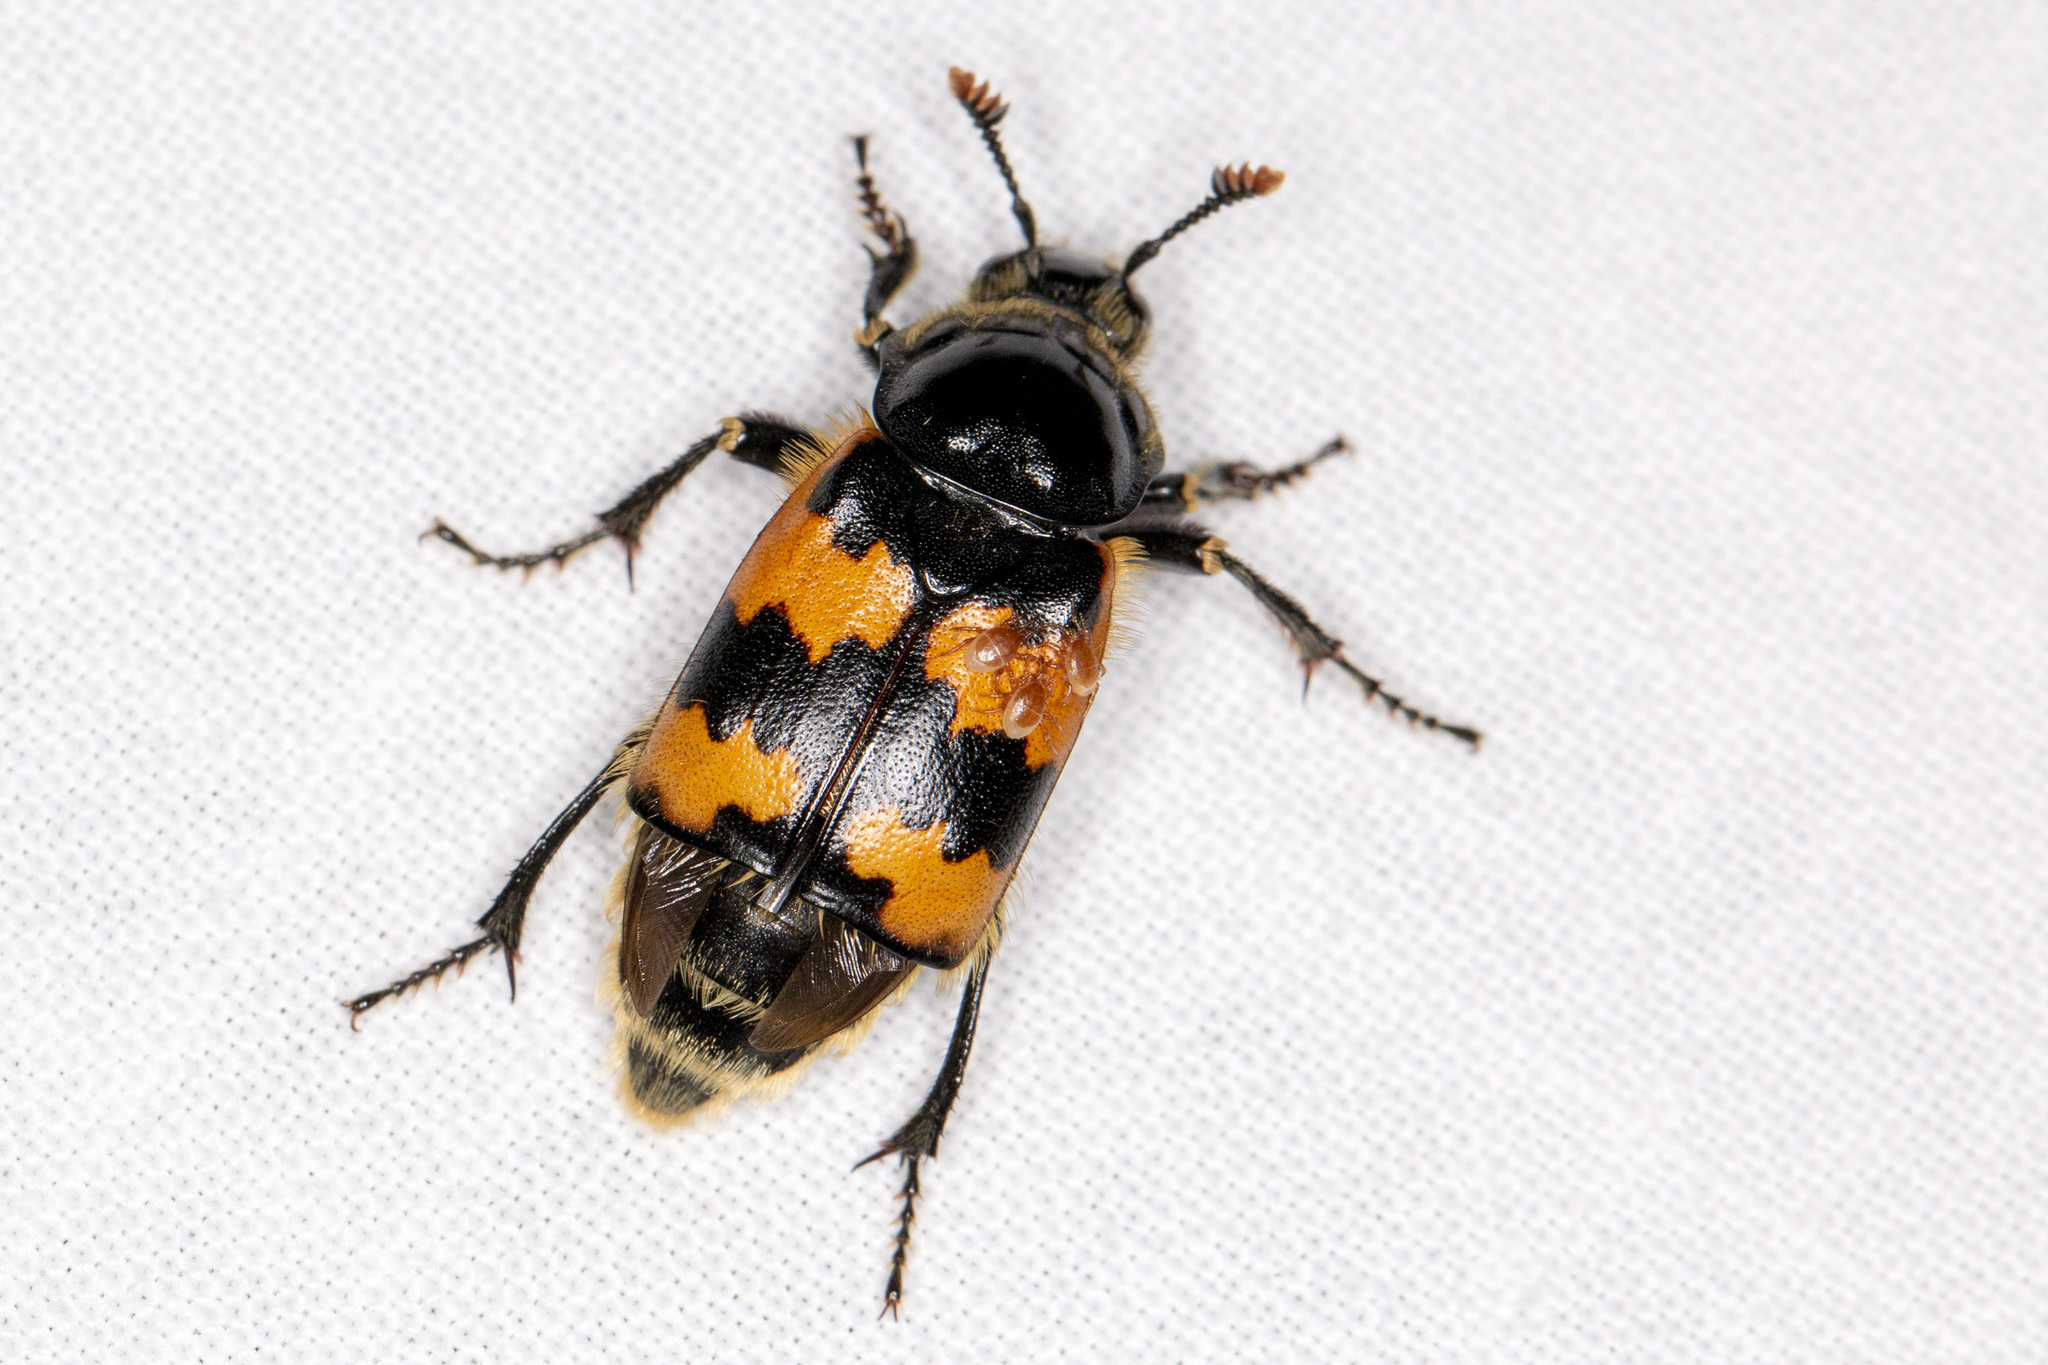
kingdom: Animalia
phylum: Arthropoda
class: Insecta
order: Coleoptera
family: Staphylinidae
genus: Nicrophorus
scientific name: Nicrophorus vespillo
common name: Common burying beetle
